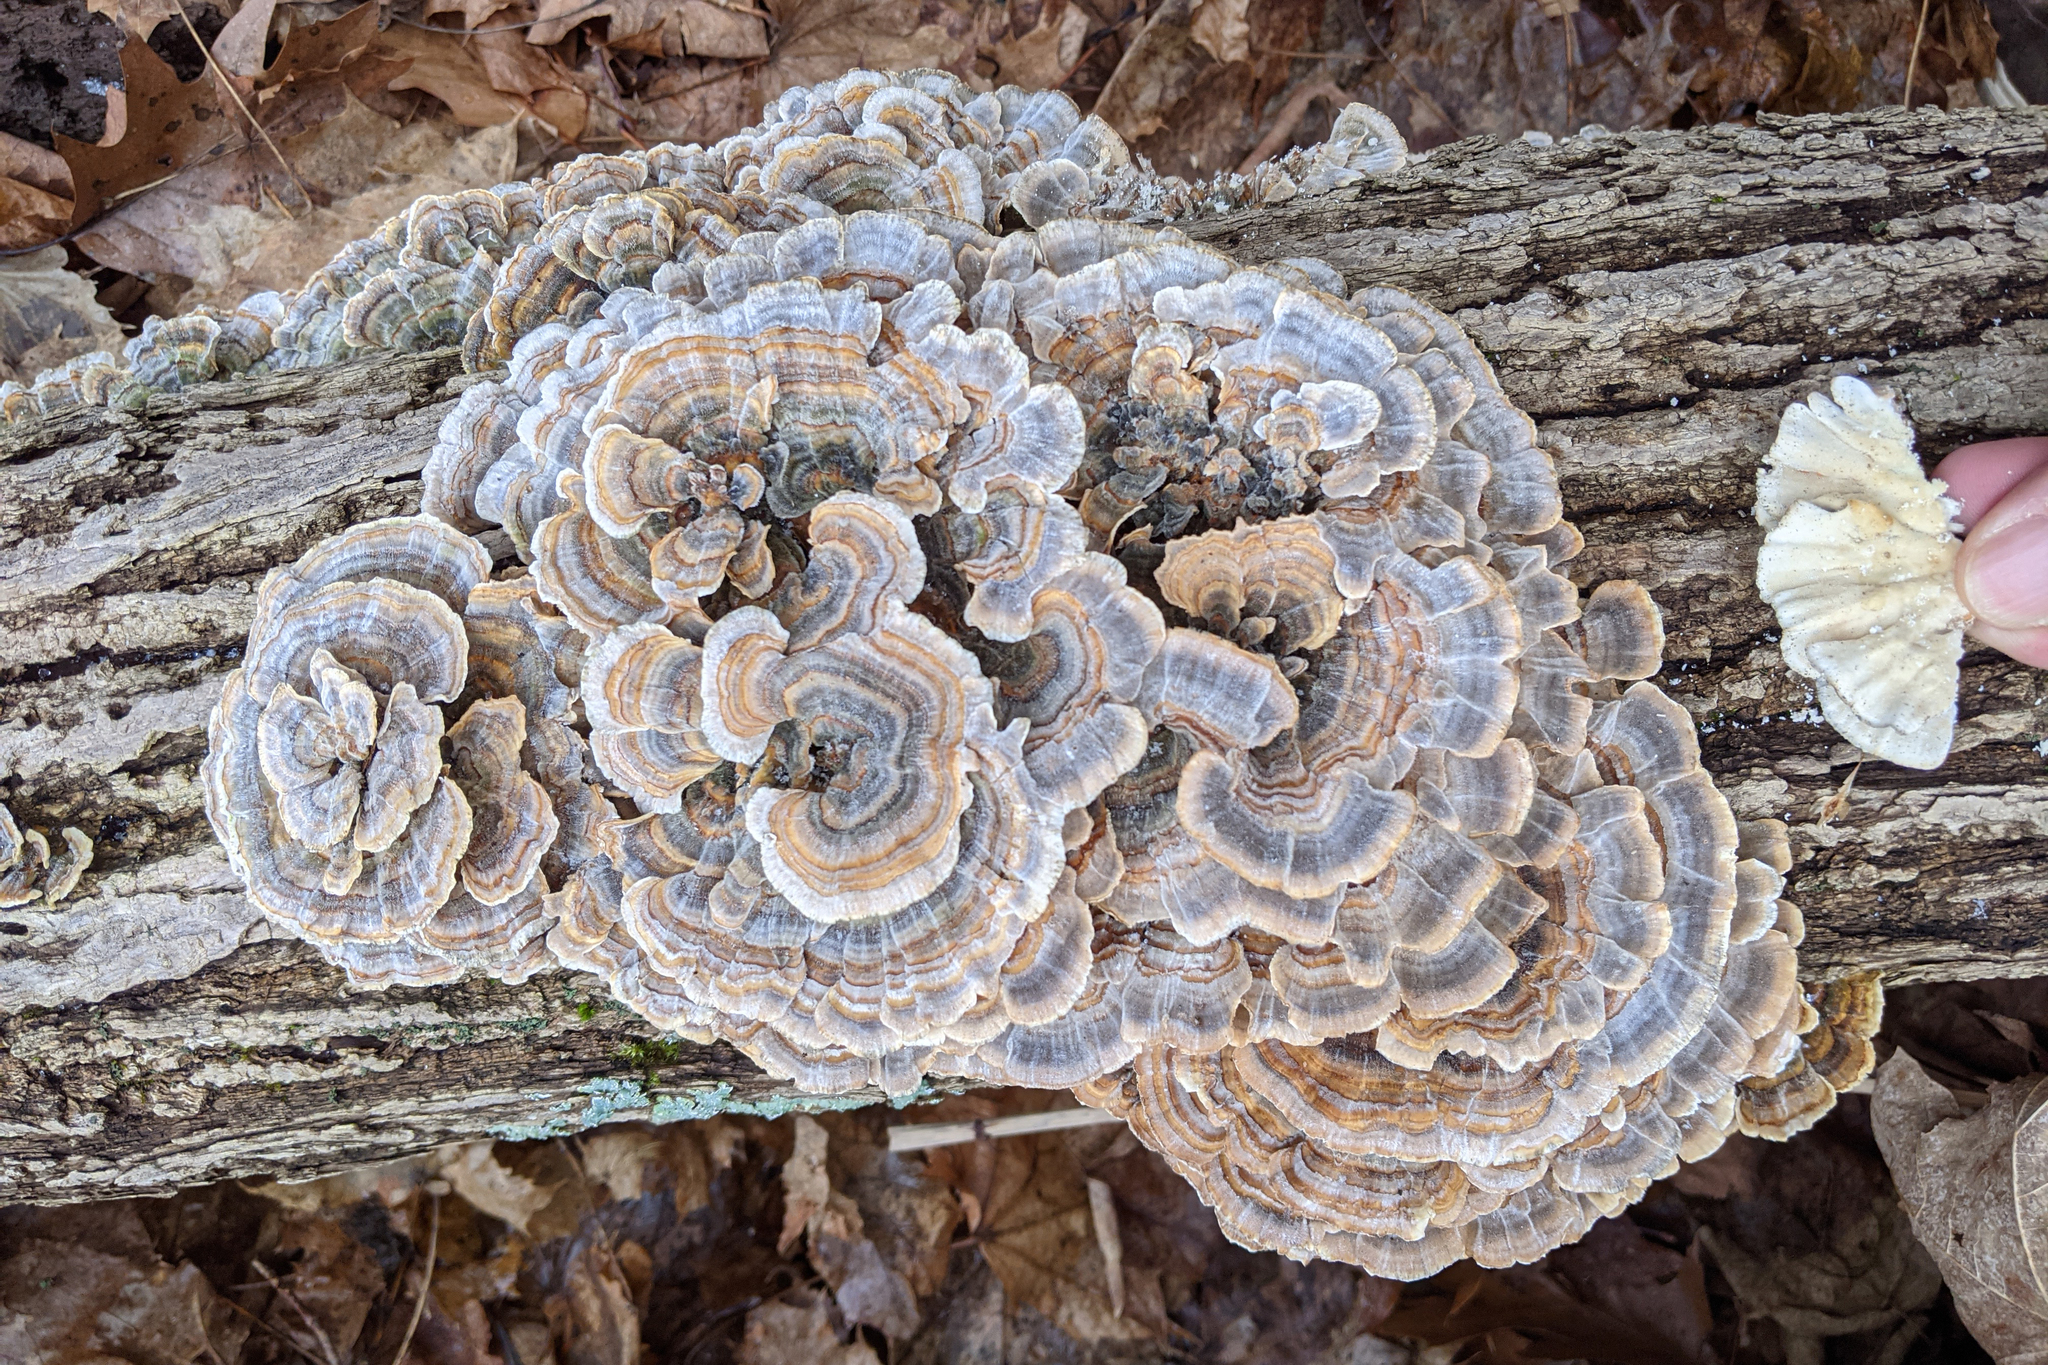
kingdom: Fungi
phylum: Basidiomycota
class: Agaricomycetes
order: Polyporales
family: Polyporaceae
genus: Trametes
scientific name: Trametes versicolor
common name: Turkeytail
